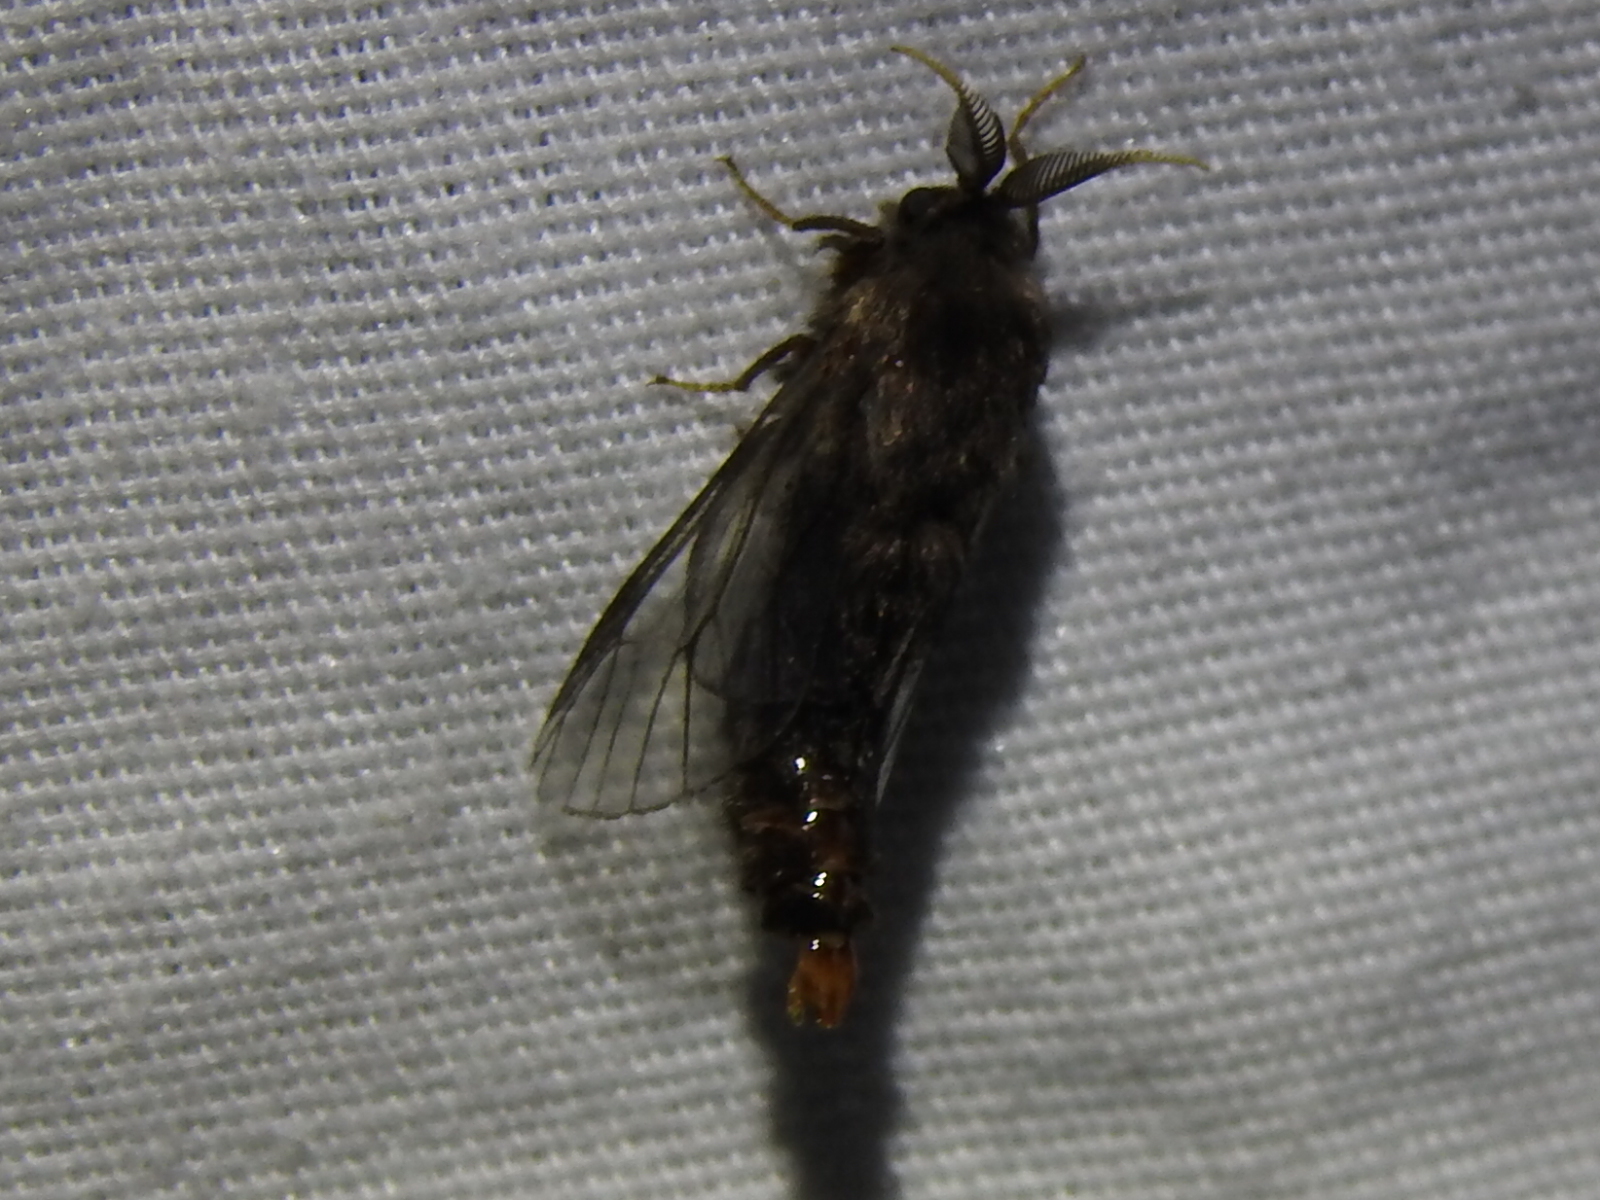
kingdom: Animalia
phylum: Arthropoda
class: Insecta
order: Lepidoptera
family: Psychidae
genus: Thyridopteryx
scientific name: Thyridopteryx ephemeraeformis
